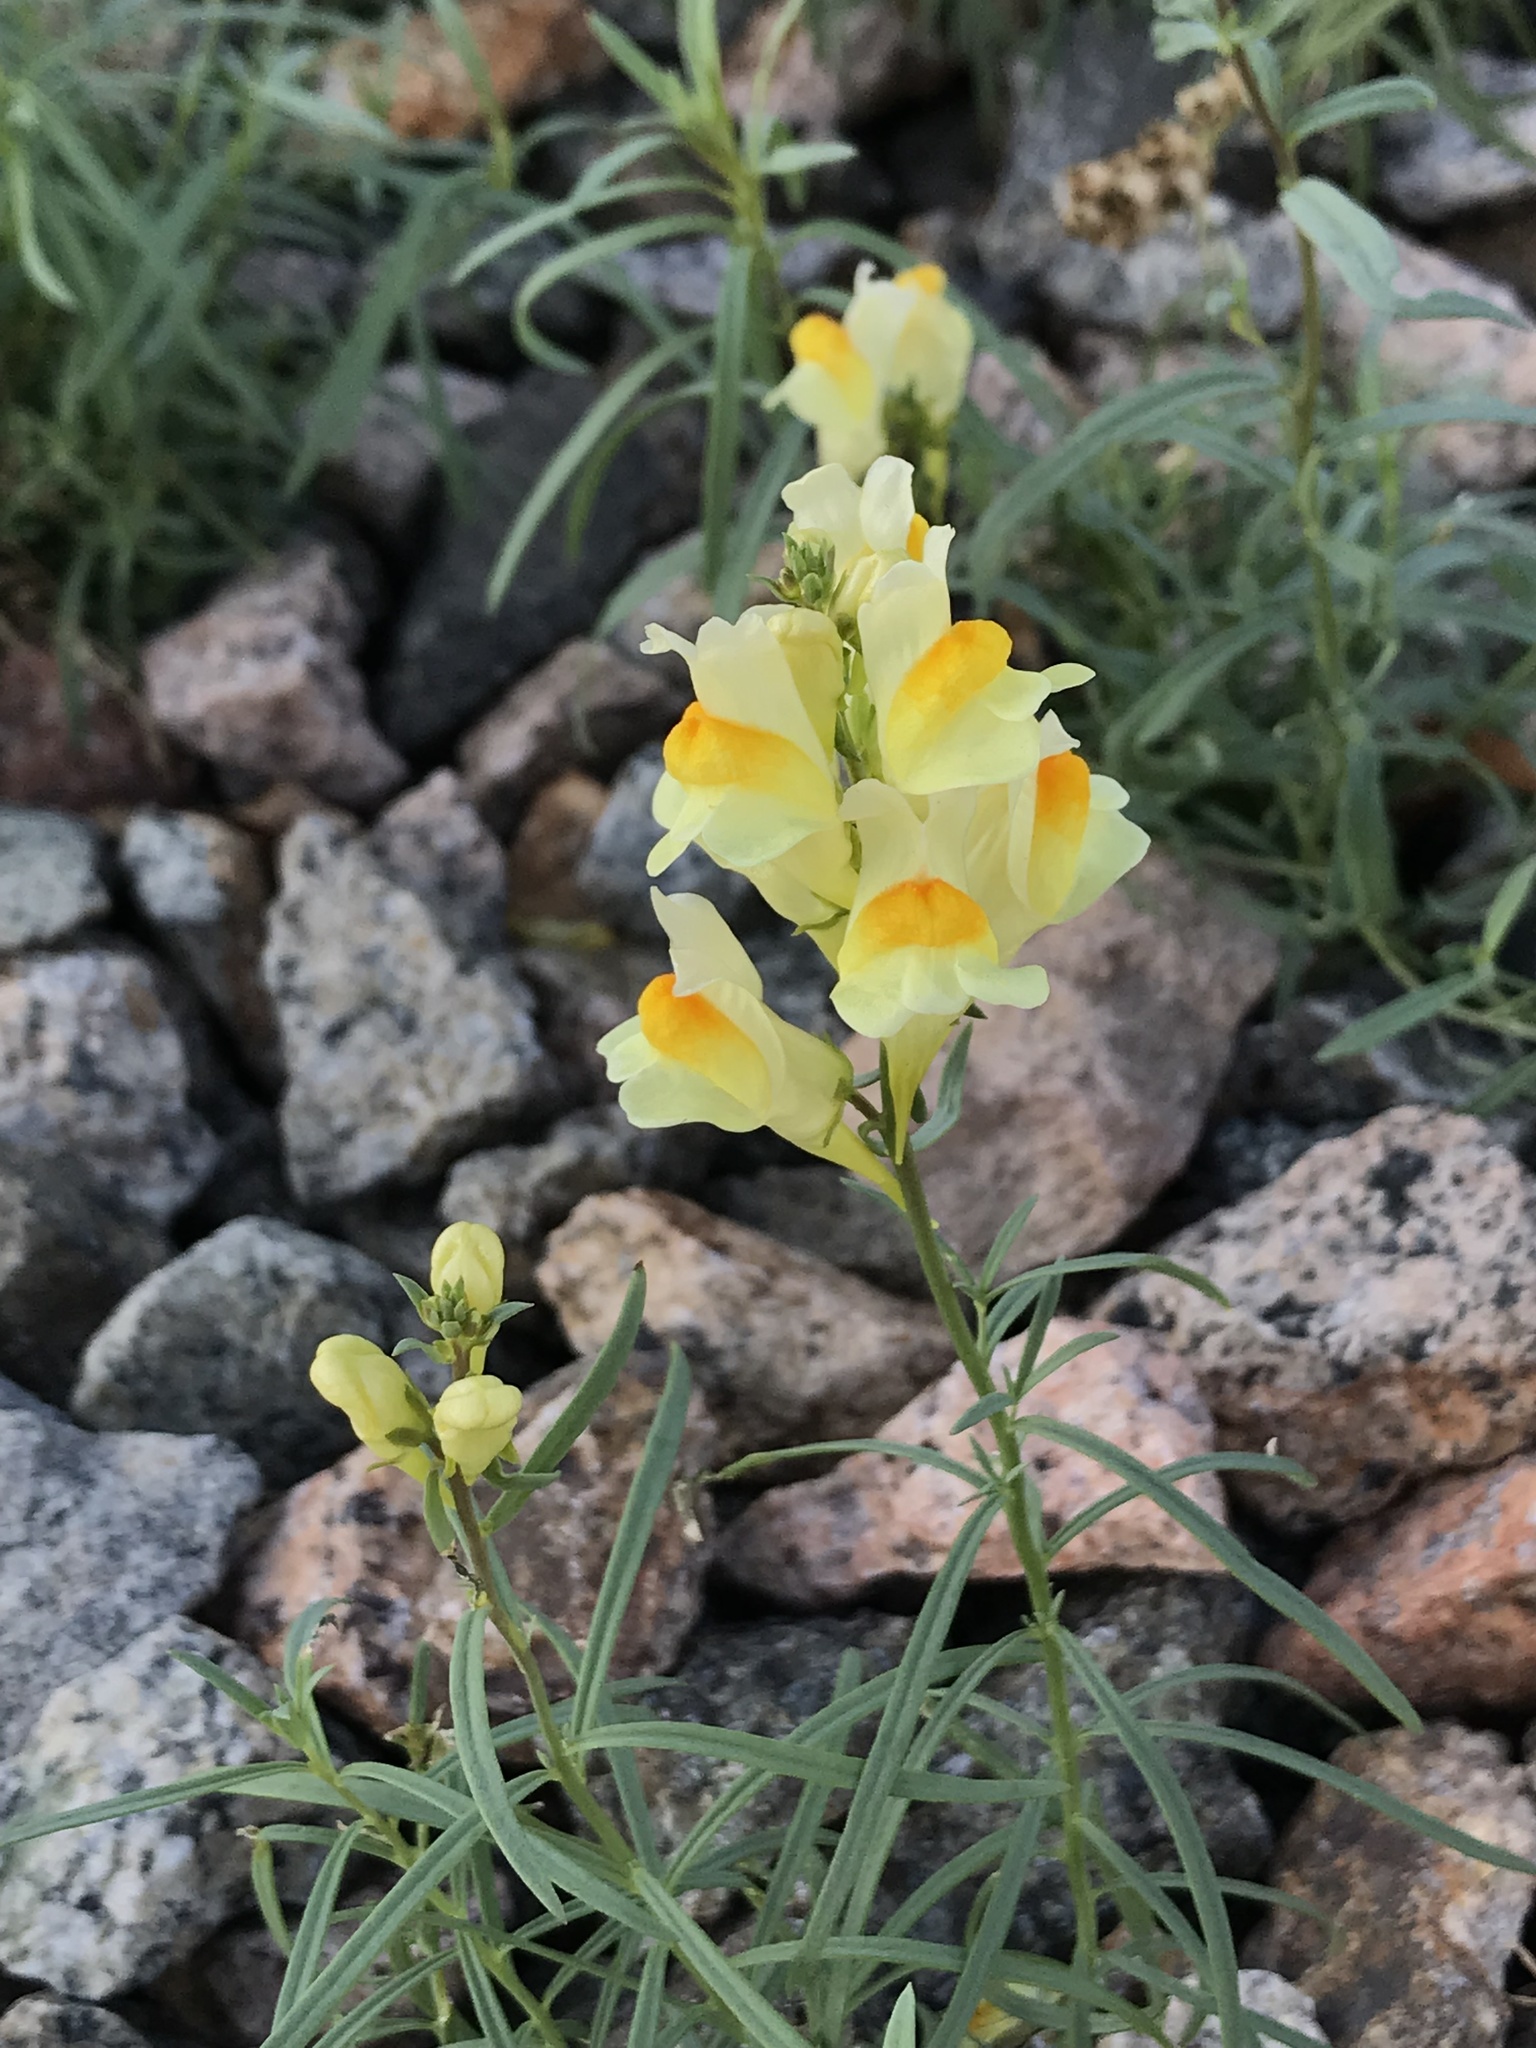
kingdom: Plantae
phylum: Tracheophyta
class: Magnoliopsida
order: Lamiales
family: Plantaginaceae
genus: Linaria
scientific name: Linaria vulgaris
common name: Butter and eggs
